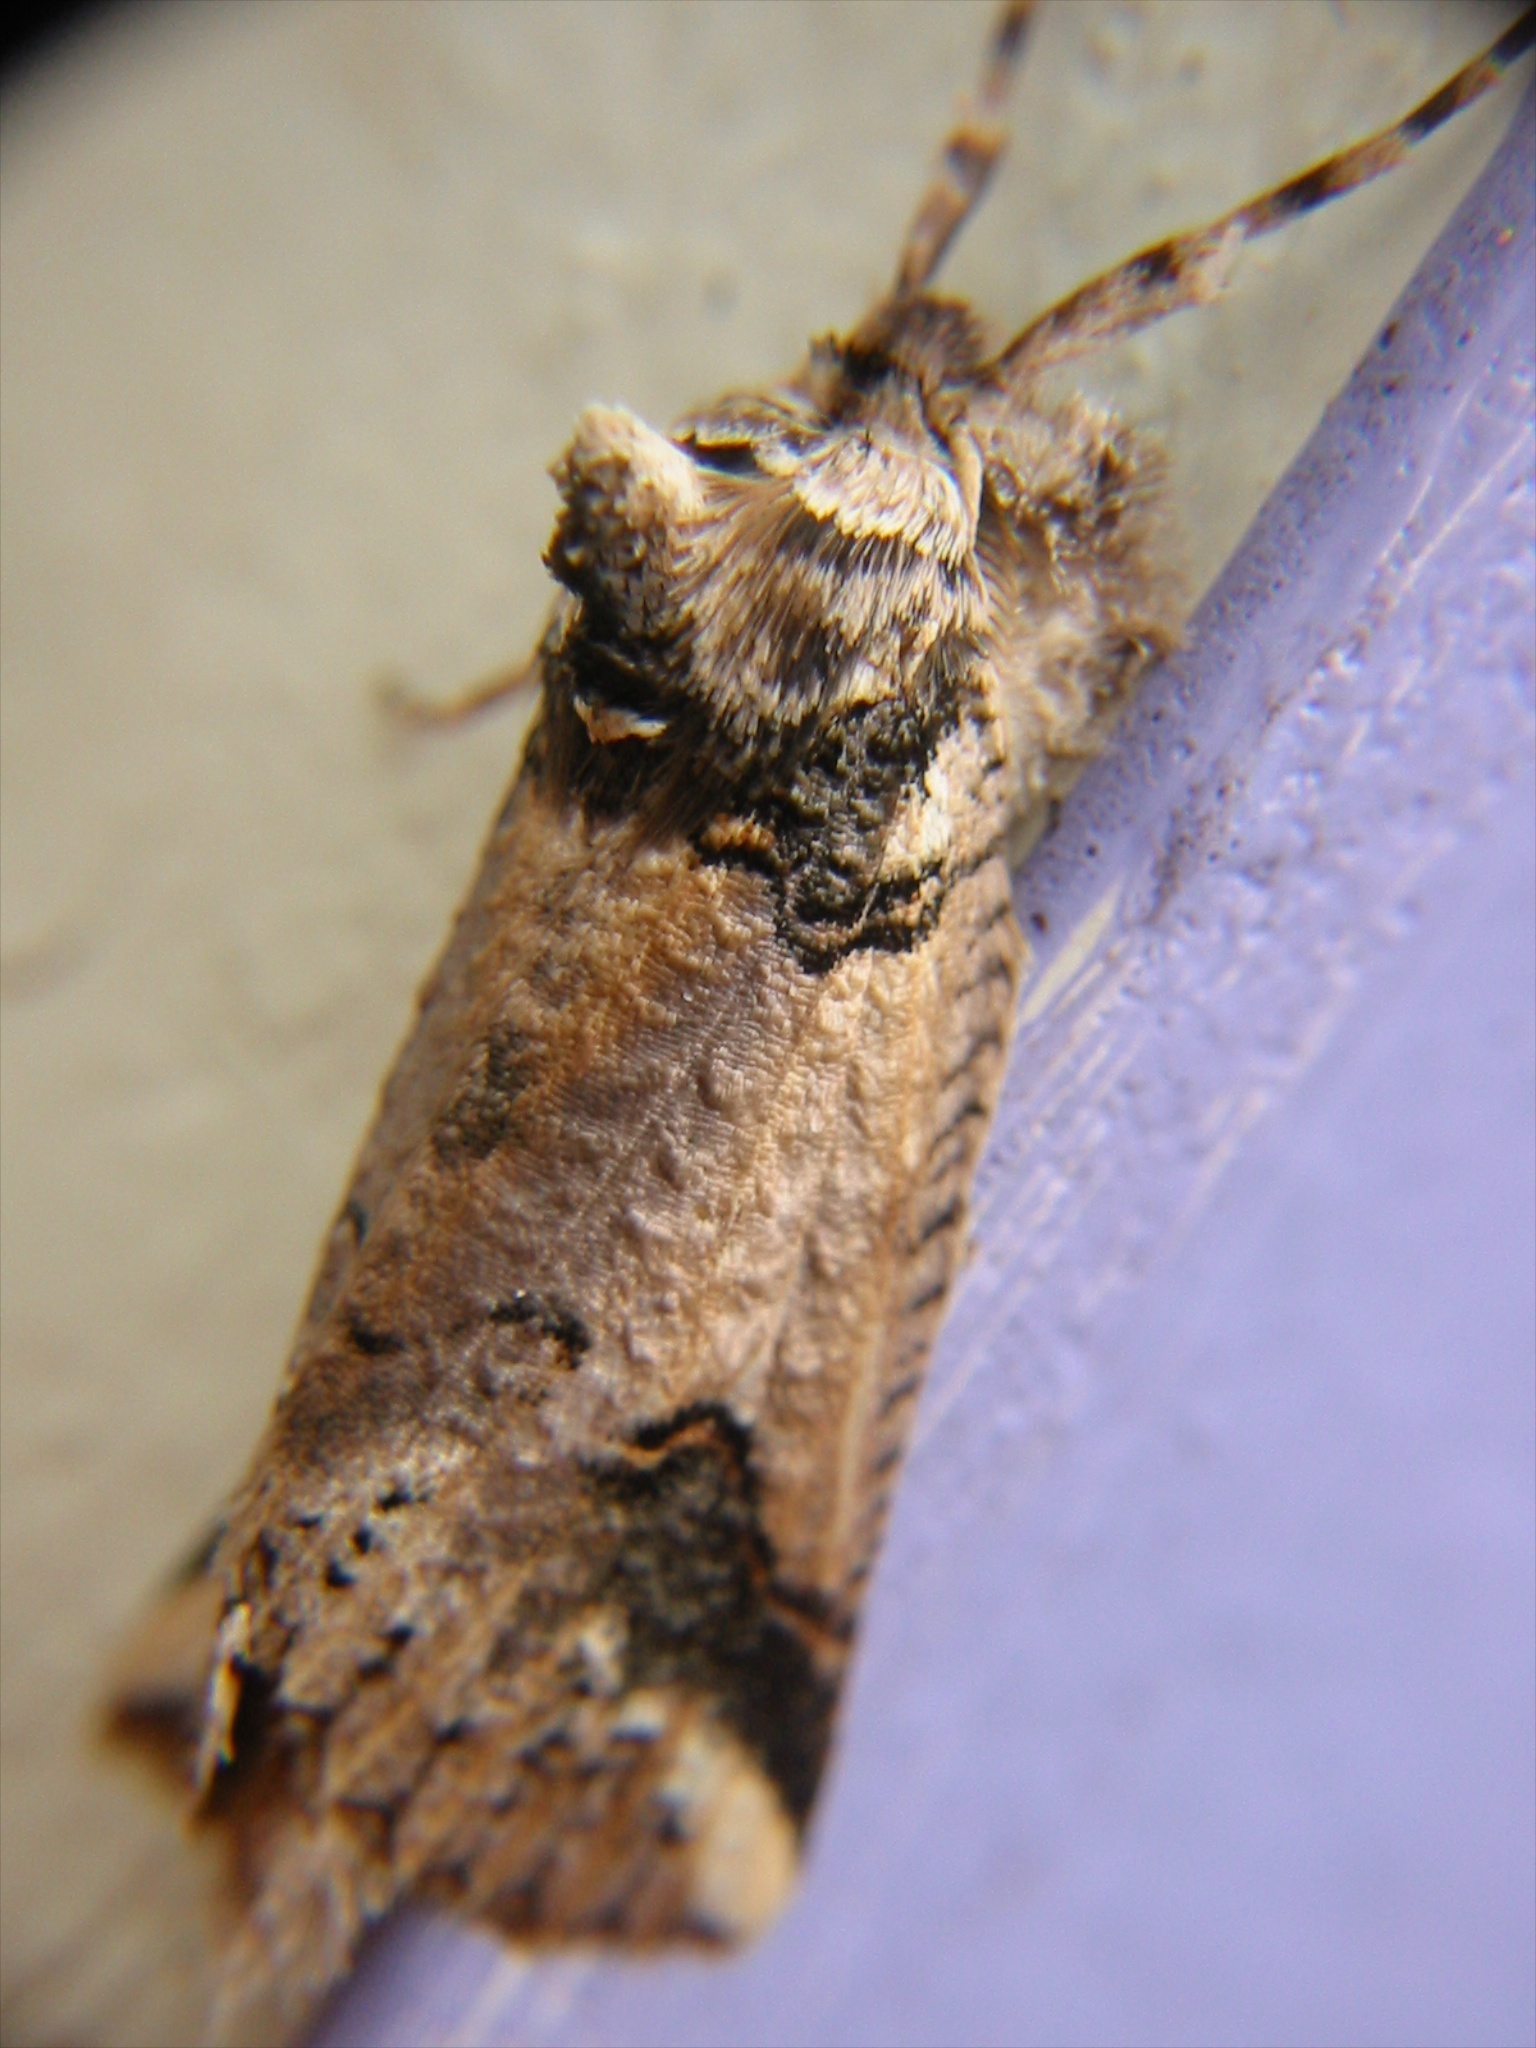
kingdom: Animalia
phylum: Arthropoda
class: Insecta
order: Lepidoptera
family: Geometridae
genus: Declana
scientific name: Declana
